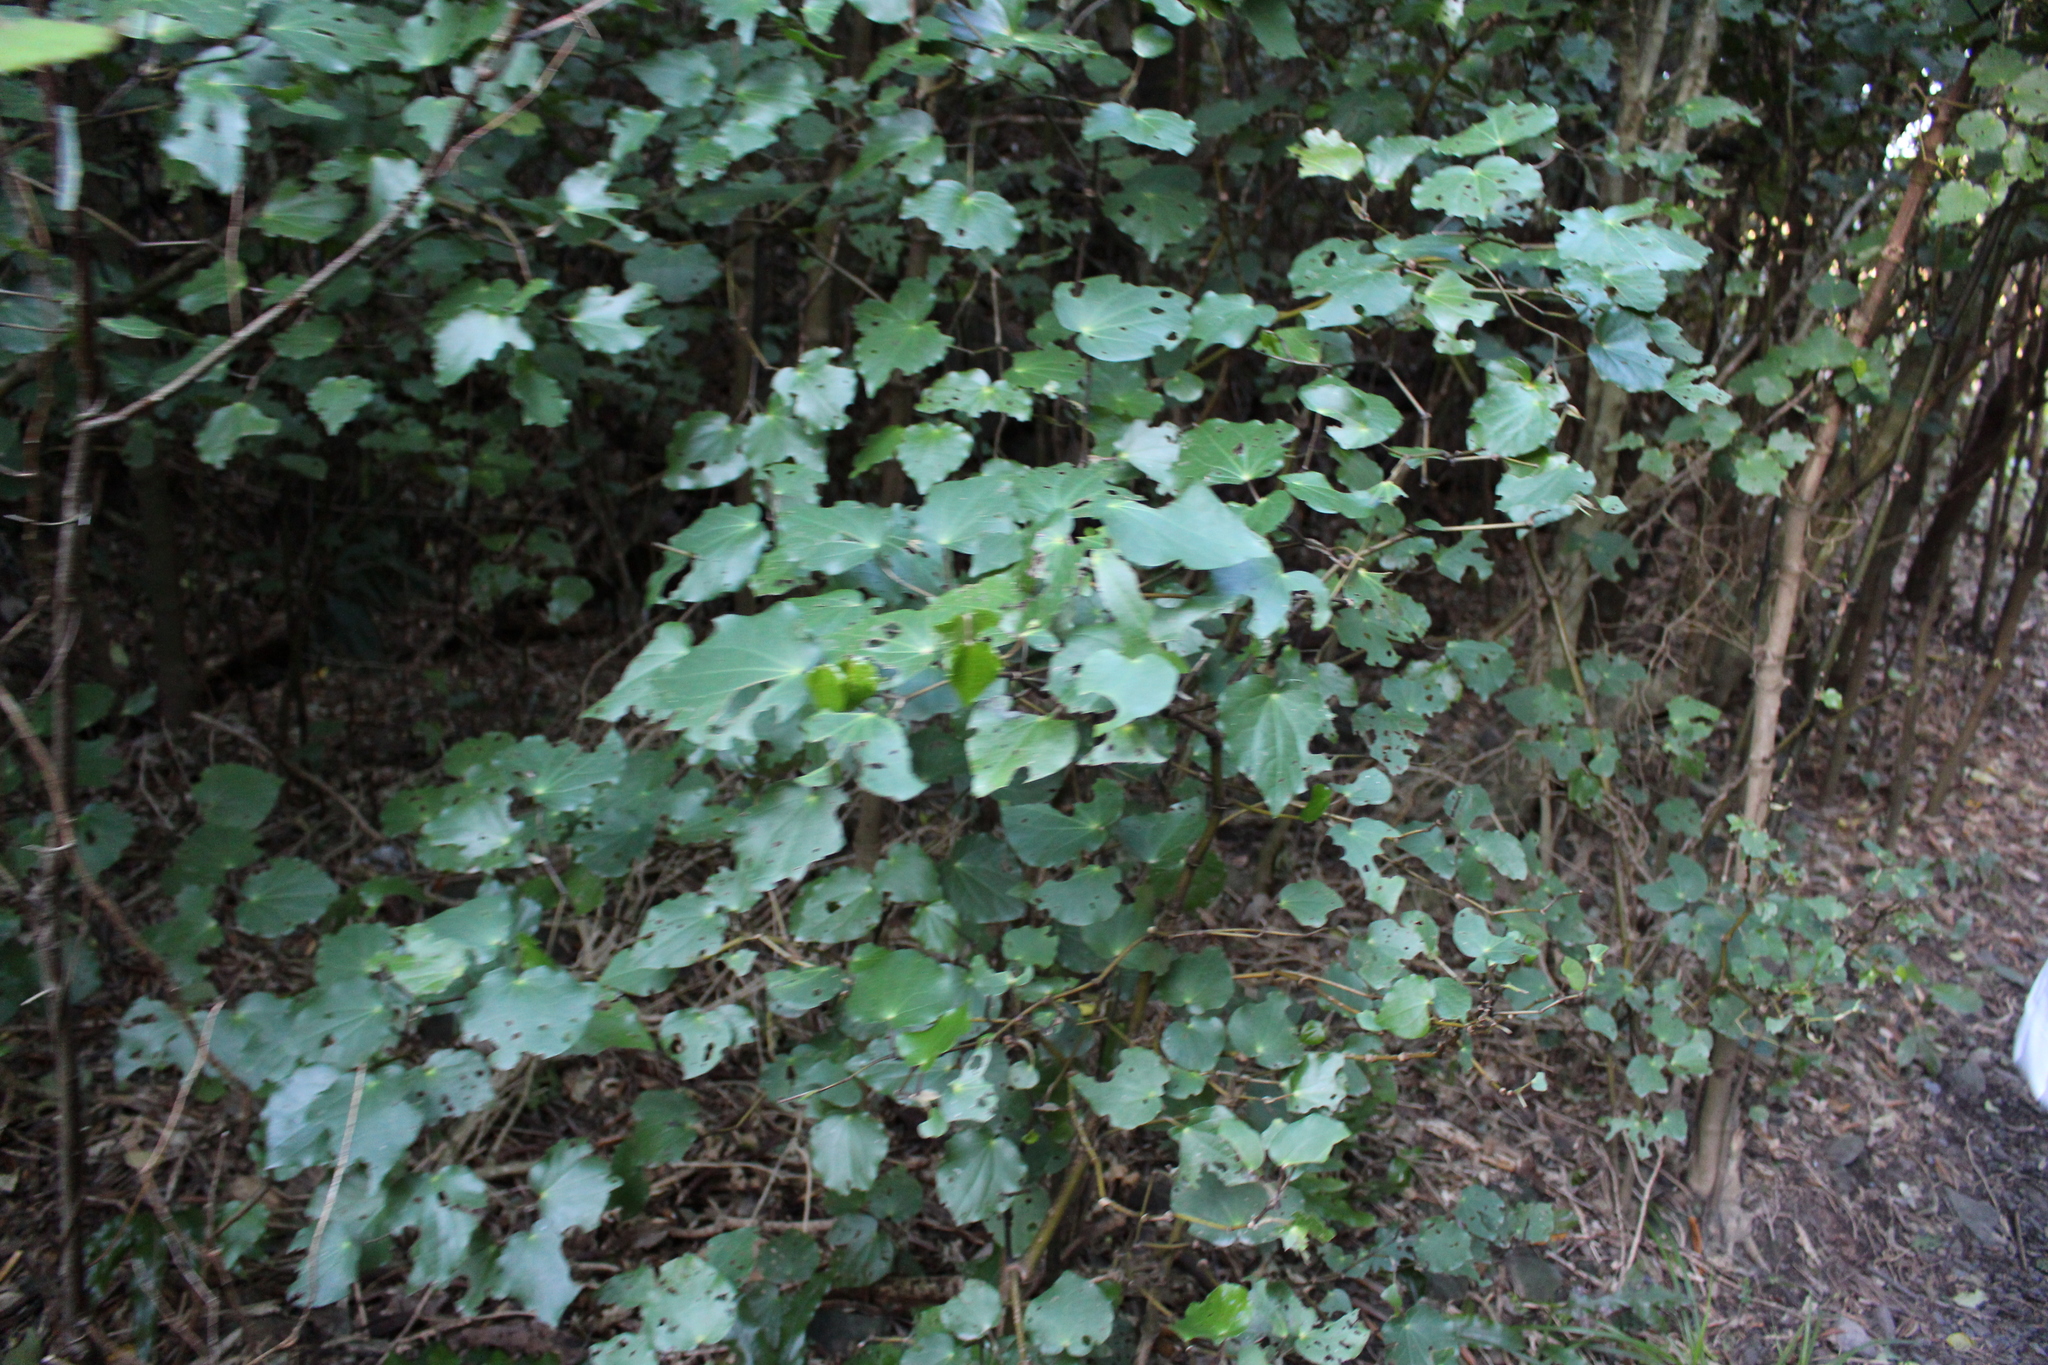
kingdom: Plantae
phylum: Tracheophyta
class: Magnoliopsida
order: Piperales
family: Piperaceae
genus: Macropiper
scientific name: Macropiper excelsum
